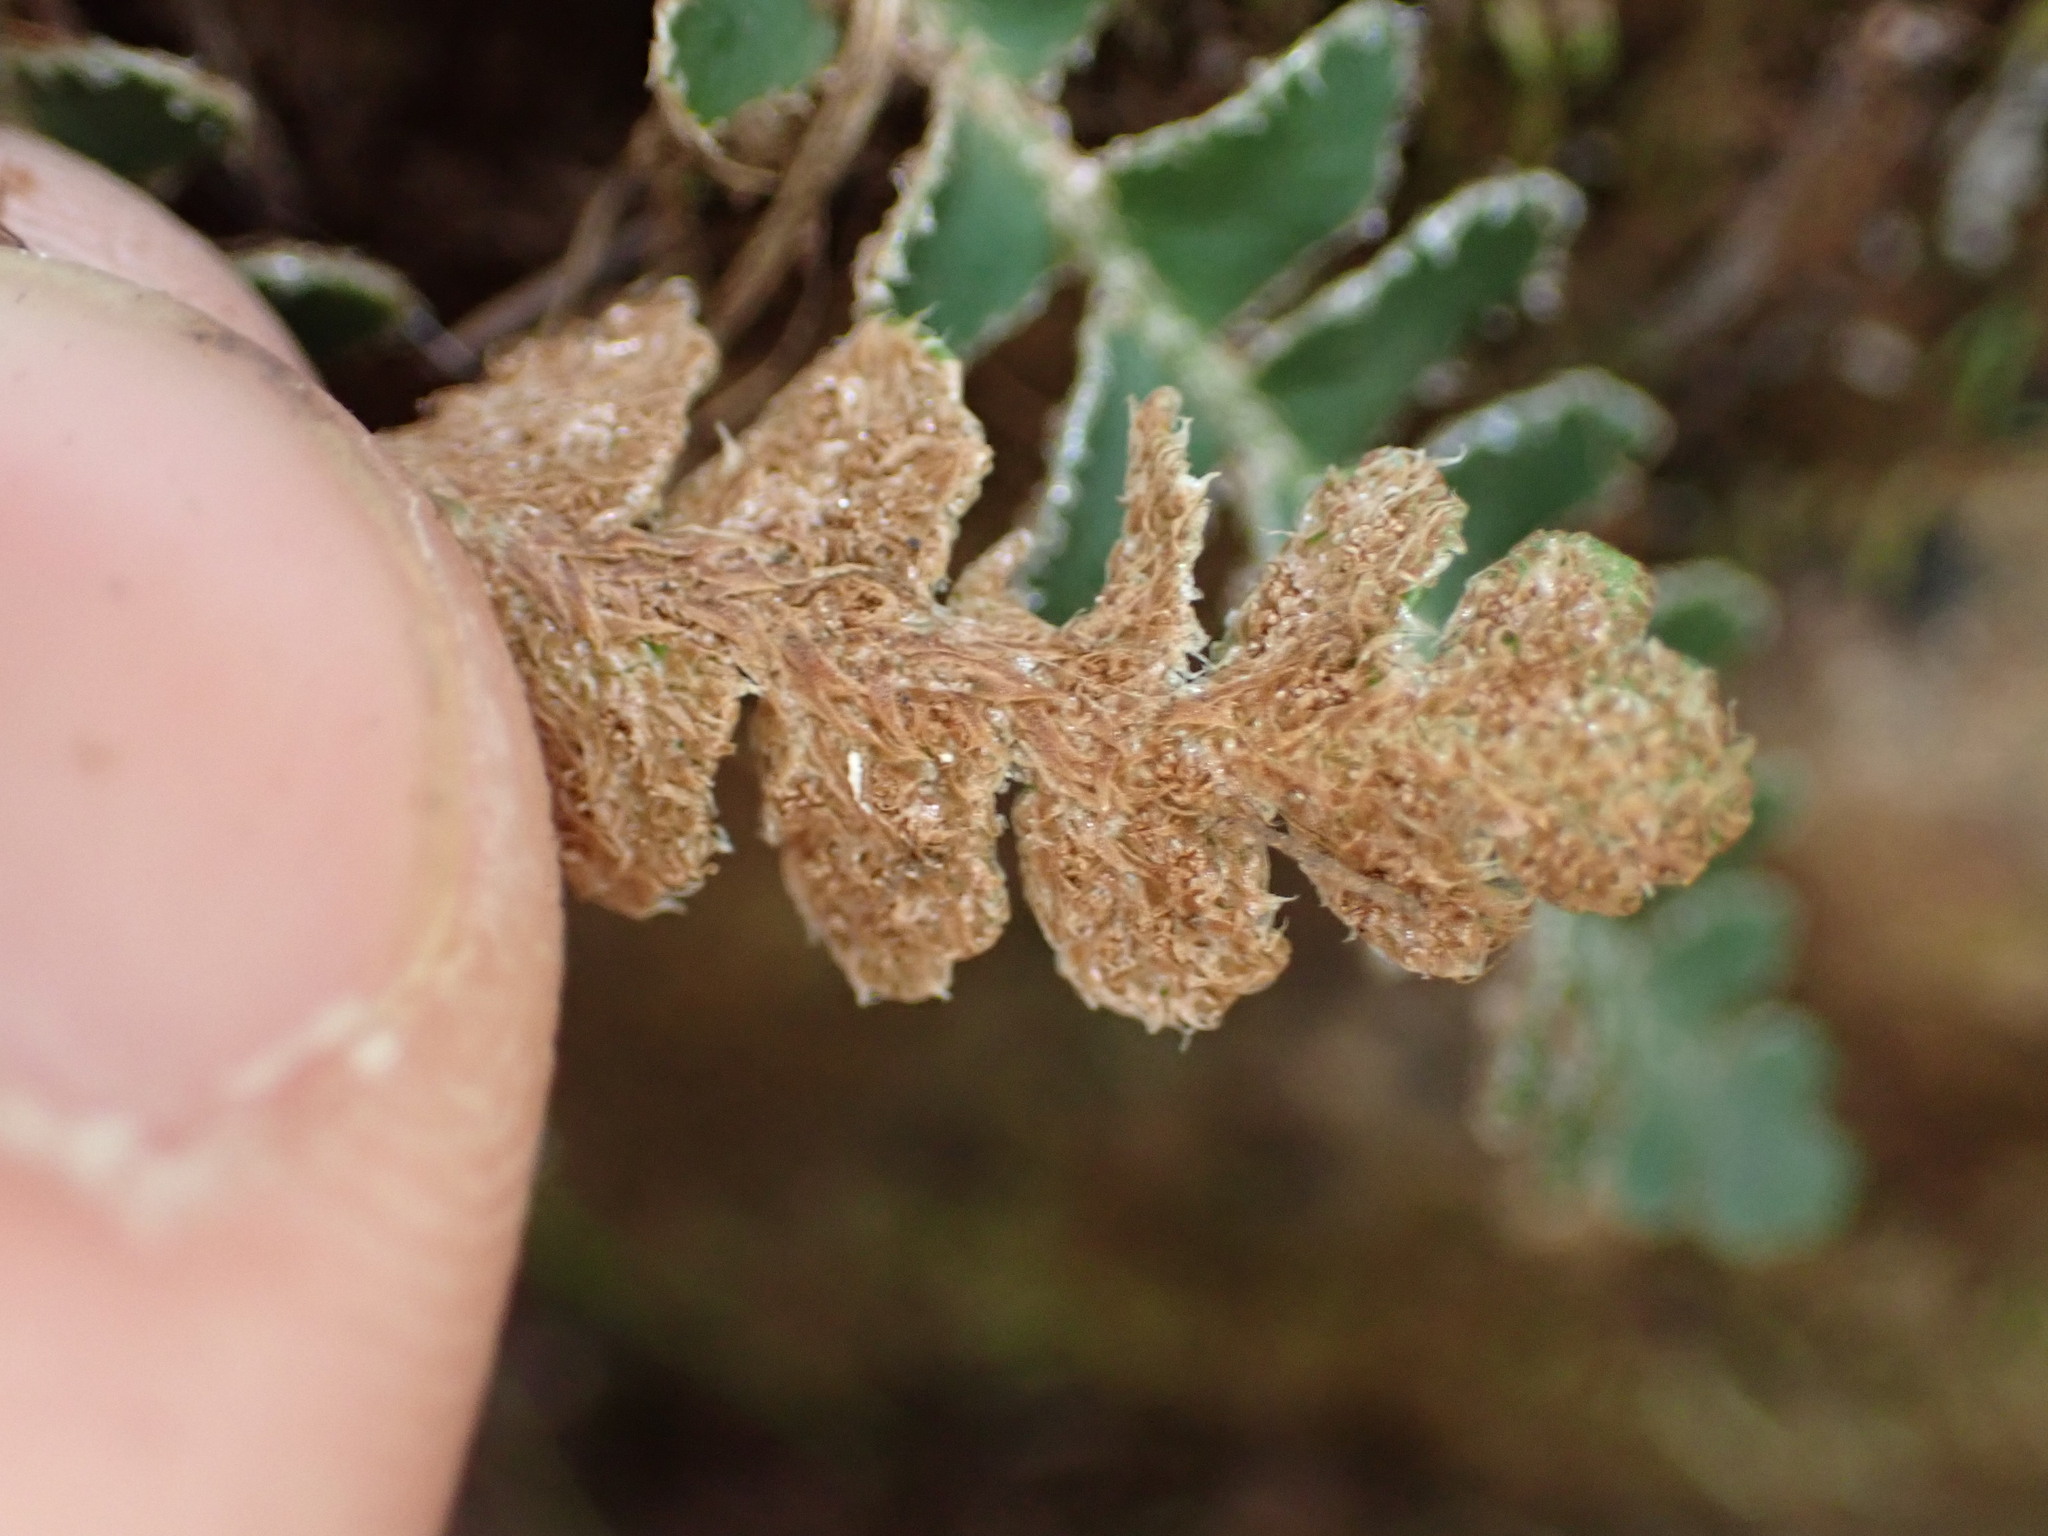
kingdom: Plantae
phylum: Tracheophyta
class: Polypodiopsida
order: Polypodiales
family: Aspleniaceae
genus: Asplenium
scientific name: Asplenium ceterach
